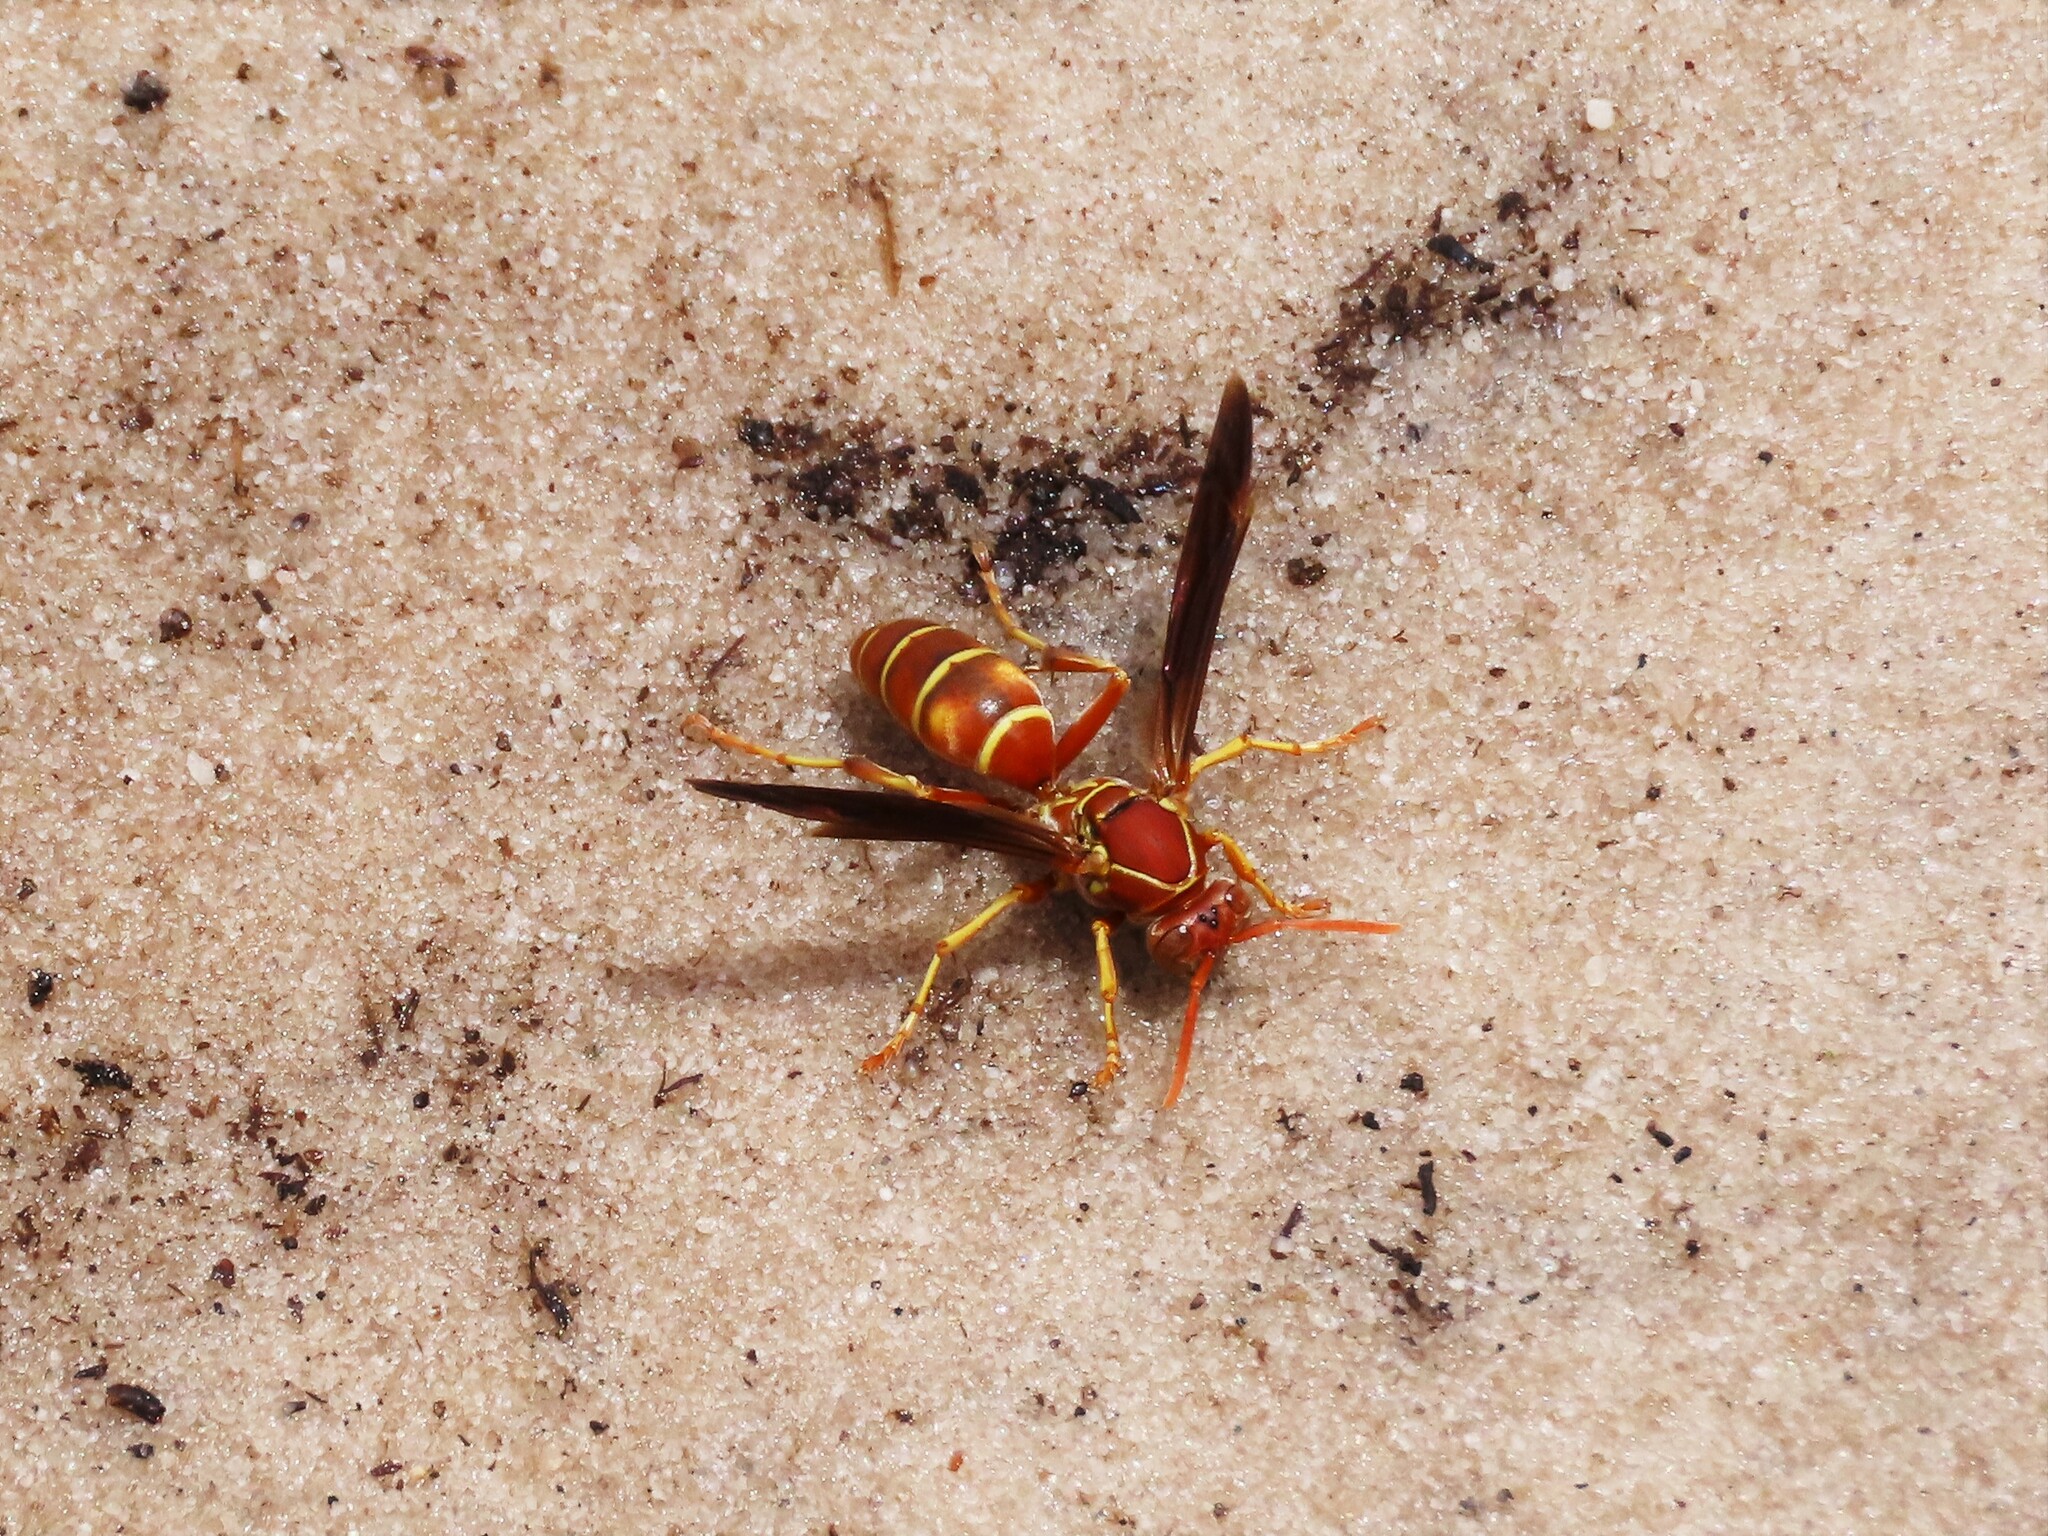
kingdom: Animalia
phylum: Arthropoda
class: Insecta
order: Hymenoptera
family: Eumenidae
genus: Polistes
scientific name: Polistes bellicosus
